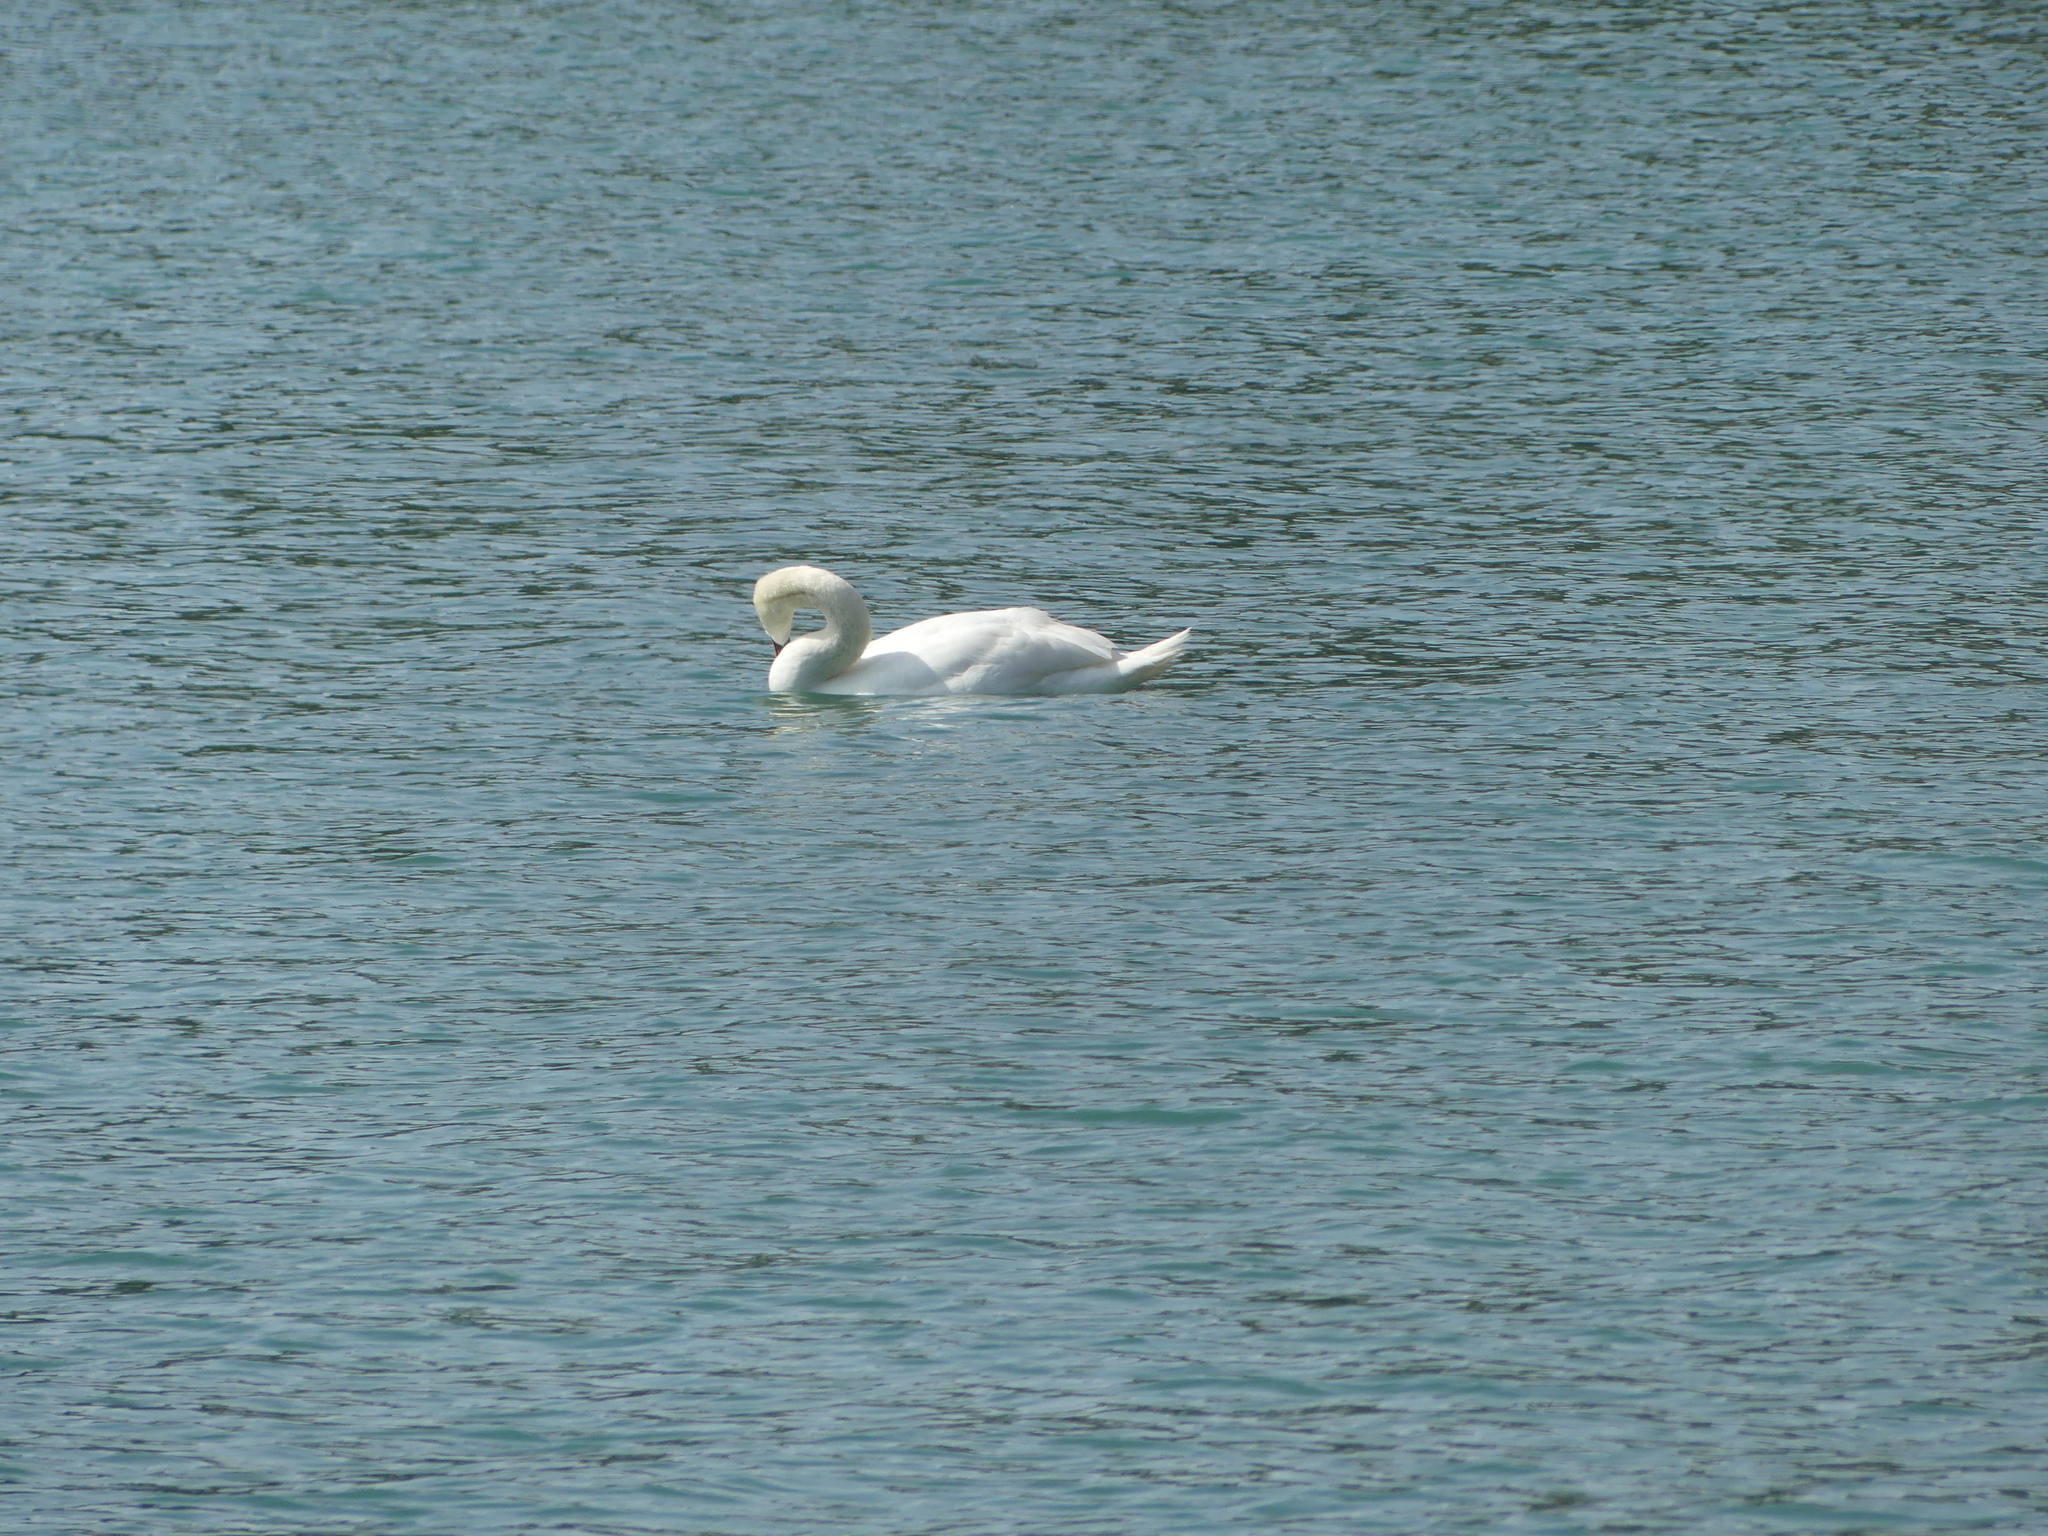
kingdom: Animalia
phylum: Chordata
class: Aves
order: Anseriformes
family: Anatidae
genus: Cygnus
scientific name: Cygnus olor
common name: Mute swan
